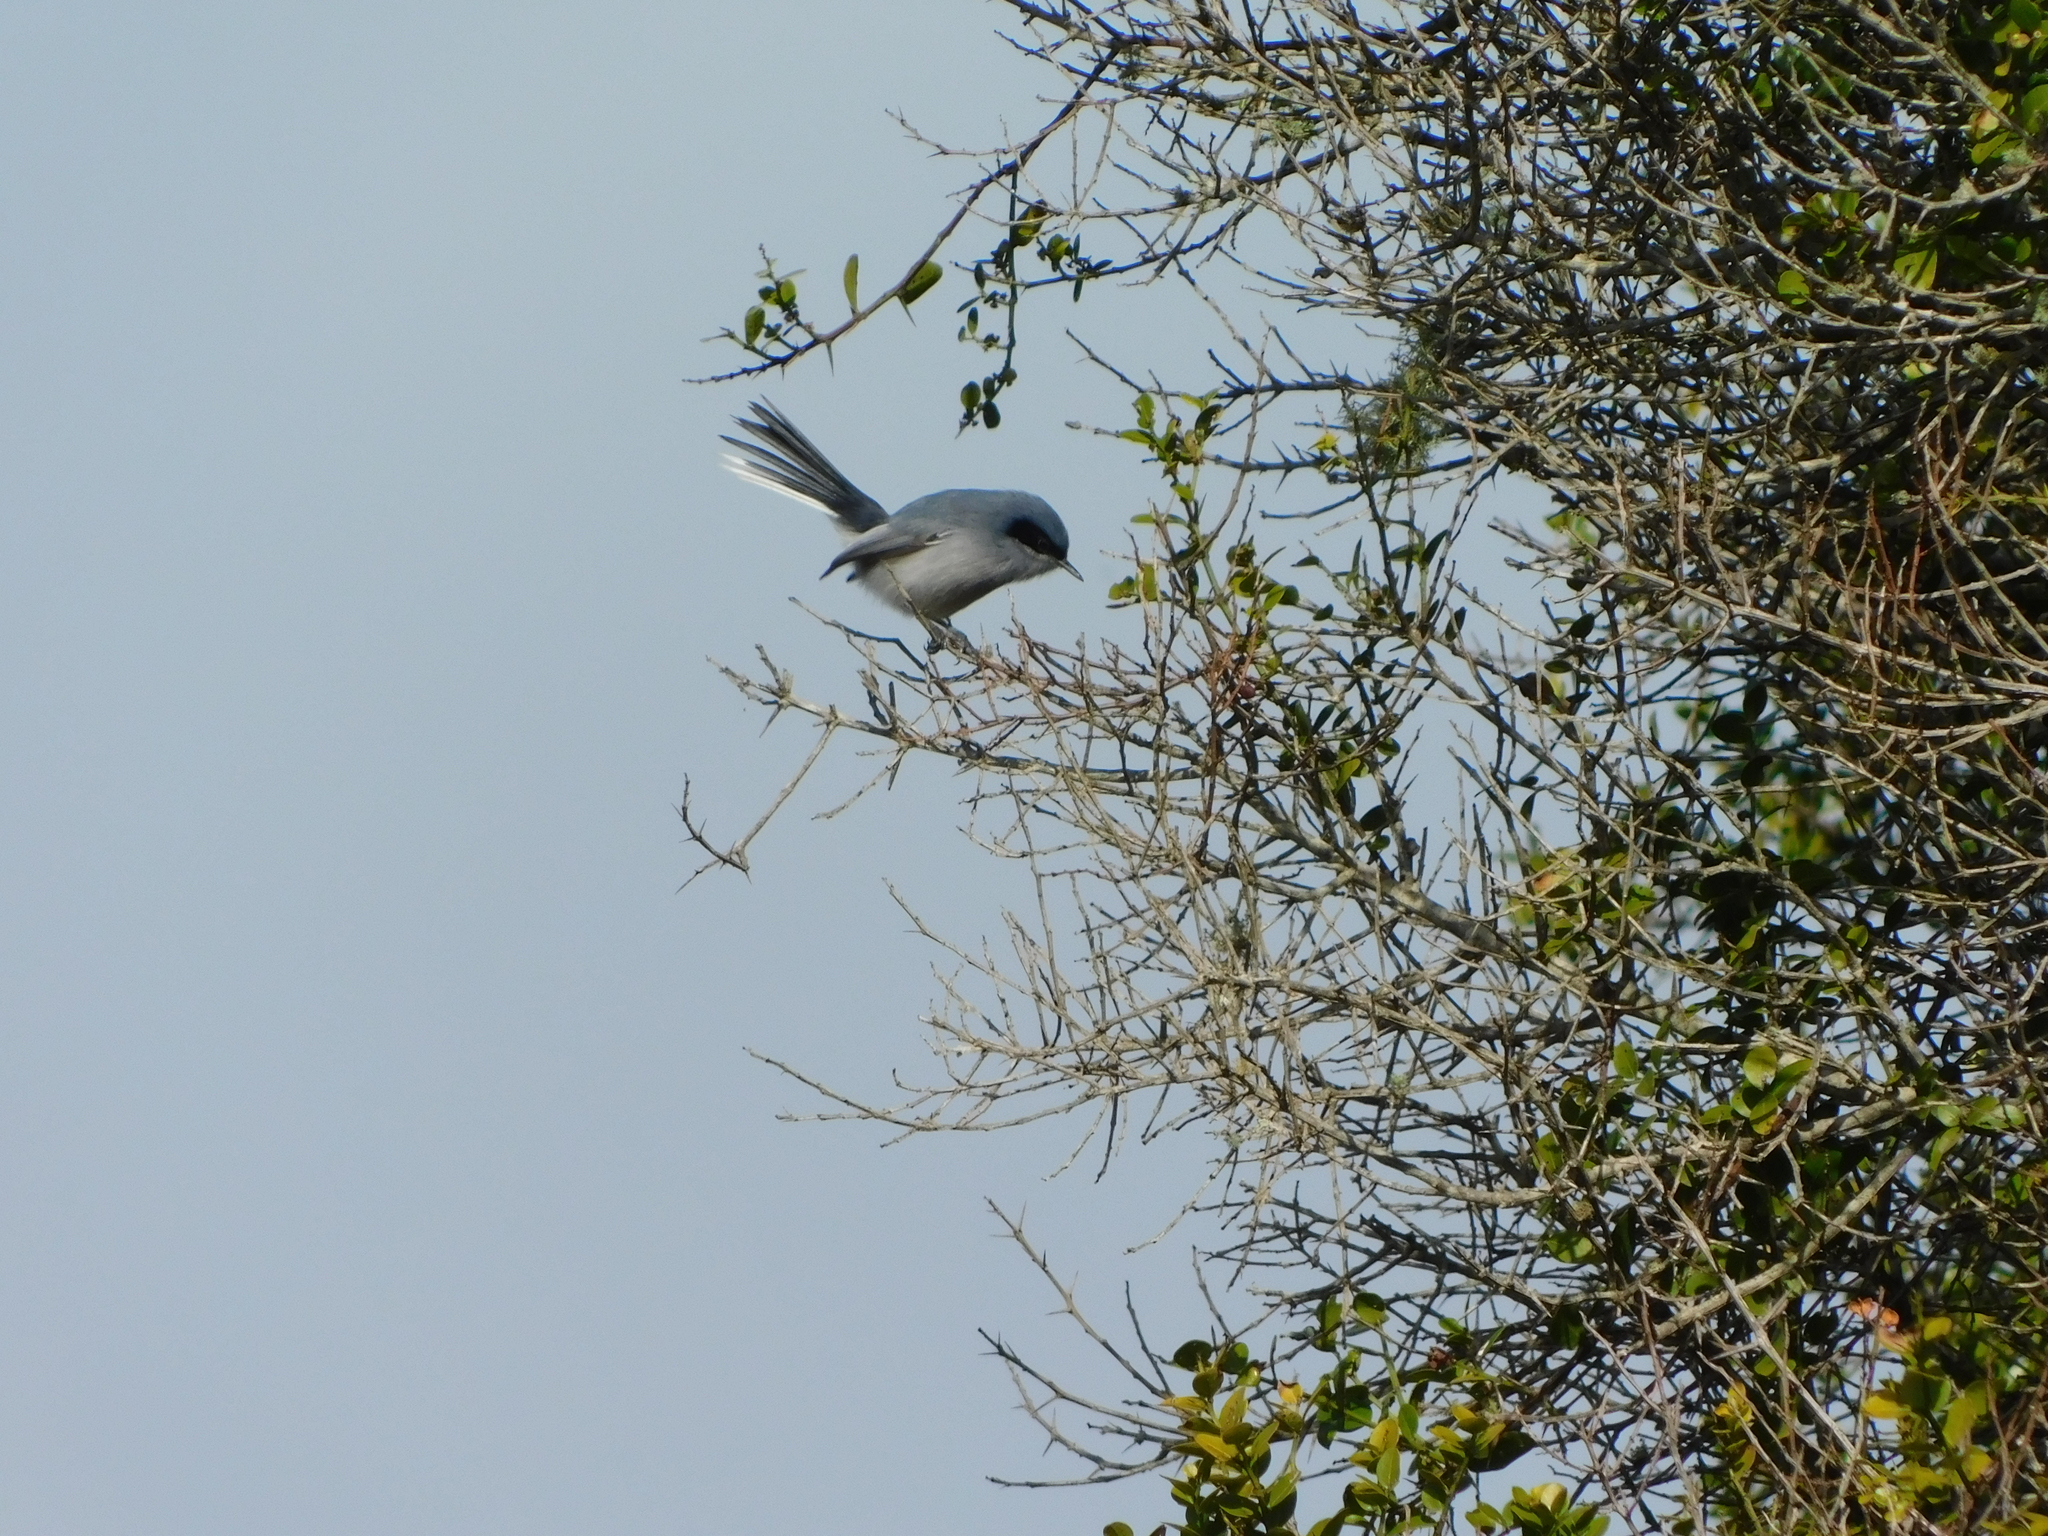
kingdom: Animalia
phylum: Chordata
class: Aves
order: Passeriformes
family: Polioptilidae
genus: Polioptila
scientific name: Polioptila dumicola
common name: Masked gnatcatcher
